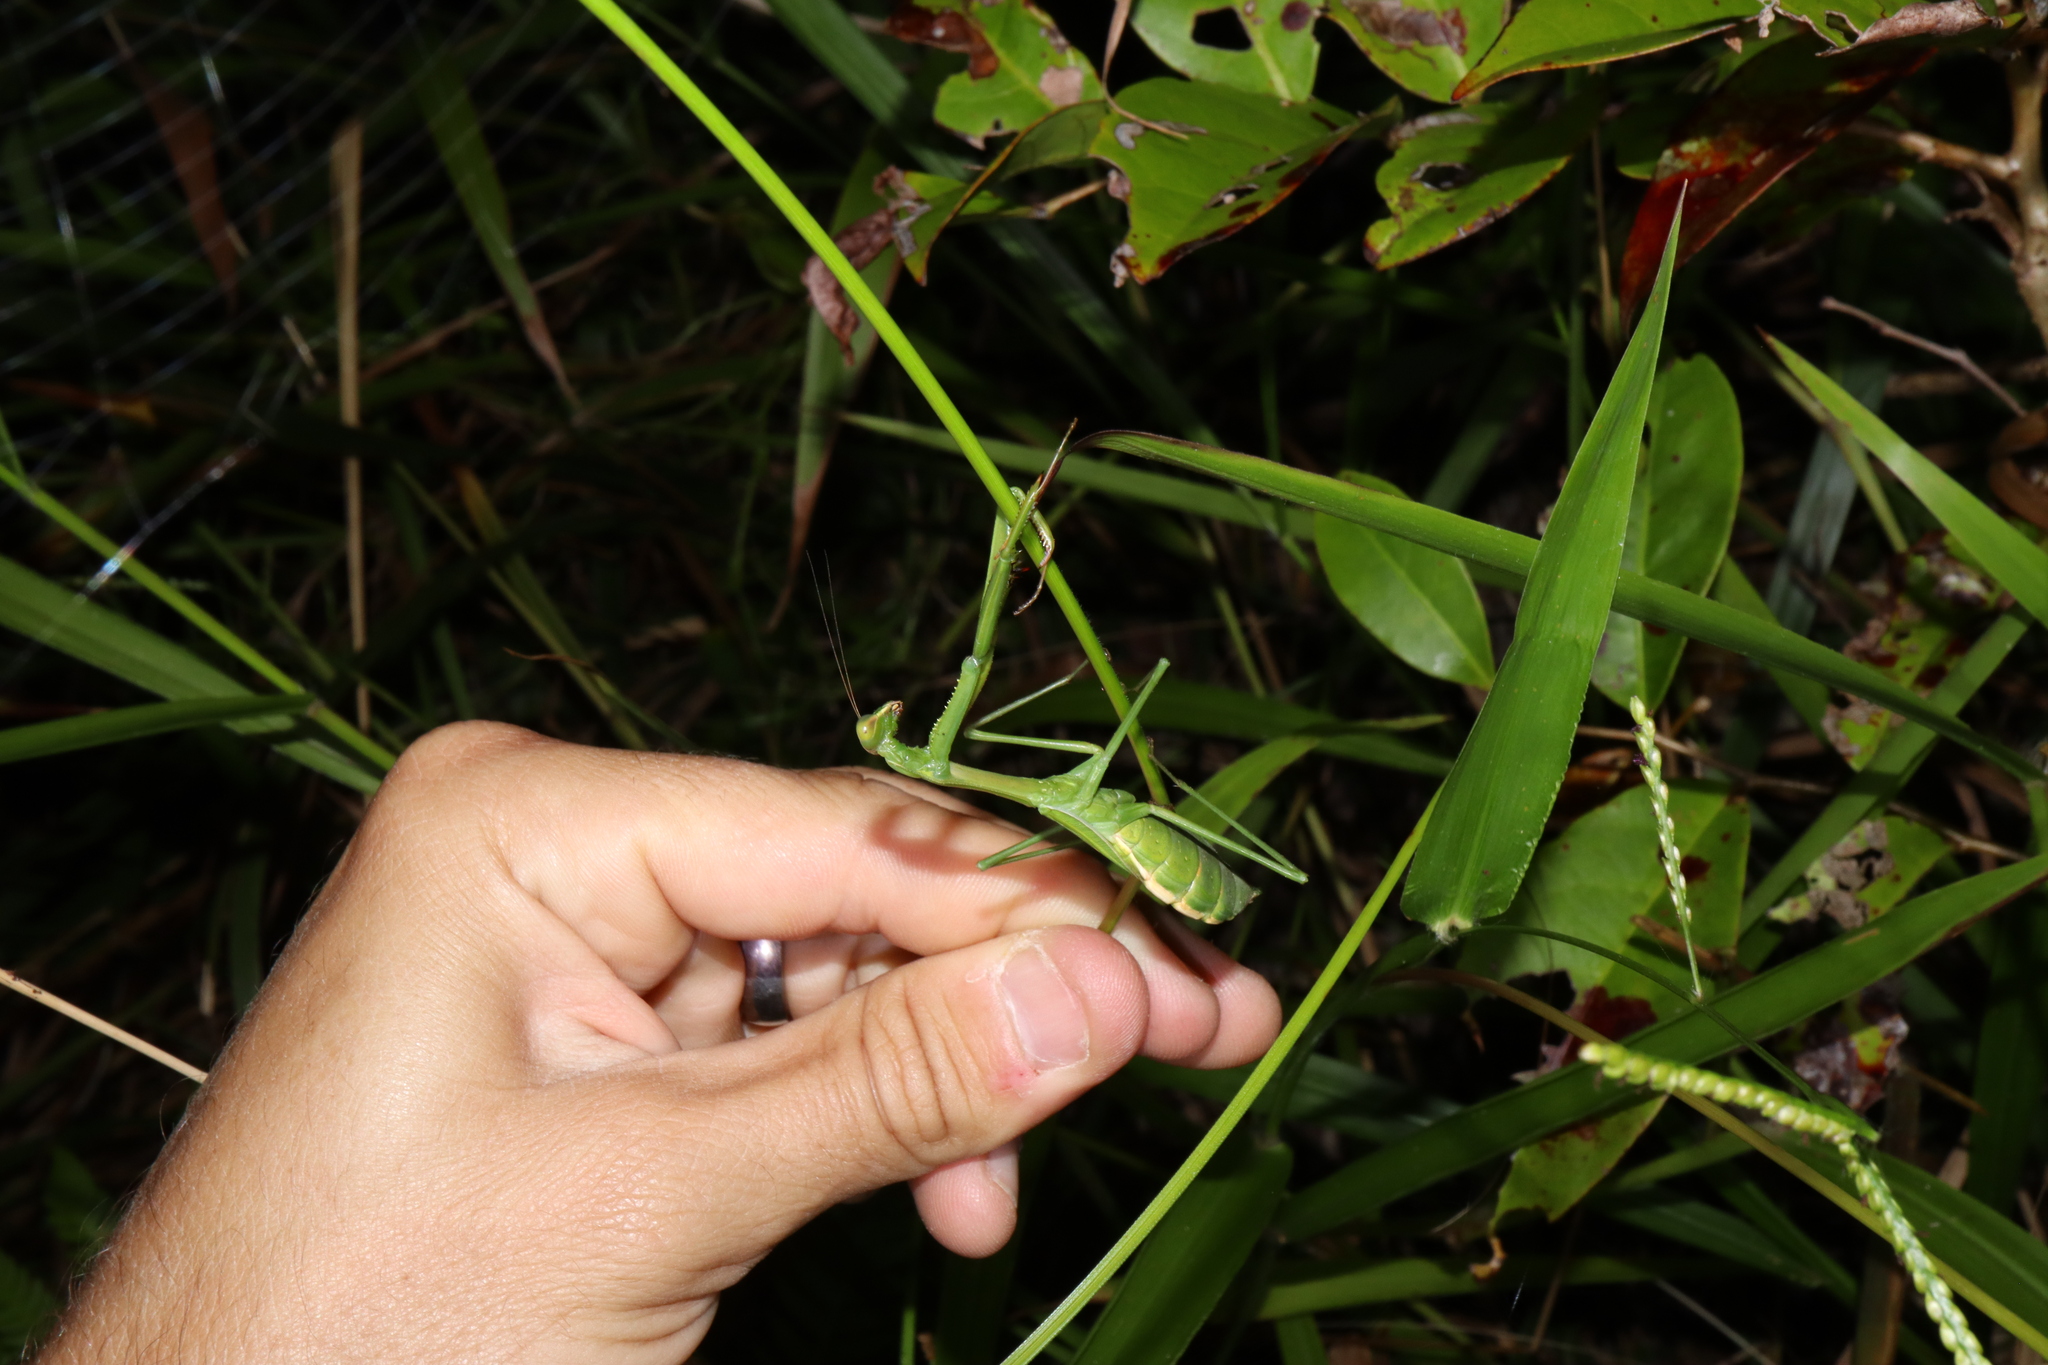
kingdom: Animalia
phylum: Arthropoda
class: Insecta
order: Mantodea
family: Mantidae
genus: Pseudomantis
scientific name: Pseudomantis albofimbriata
